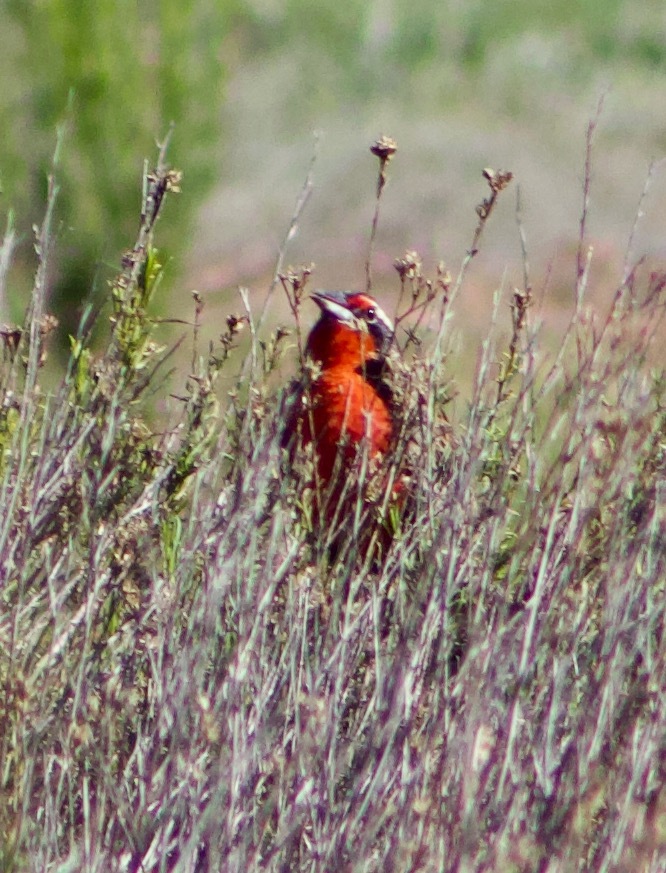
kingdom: Animalia
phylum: Chordata
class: Aves
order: Passeriformes
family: Icteridae
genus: Sturnella
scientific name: Sturnella loyca
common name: Long-tailed meadowlark
